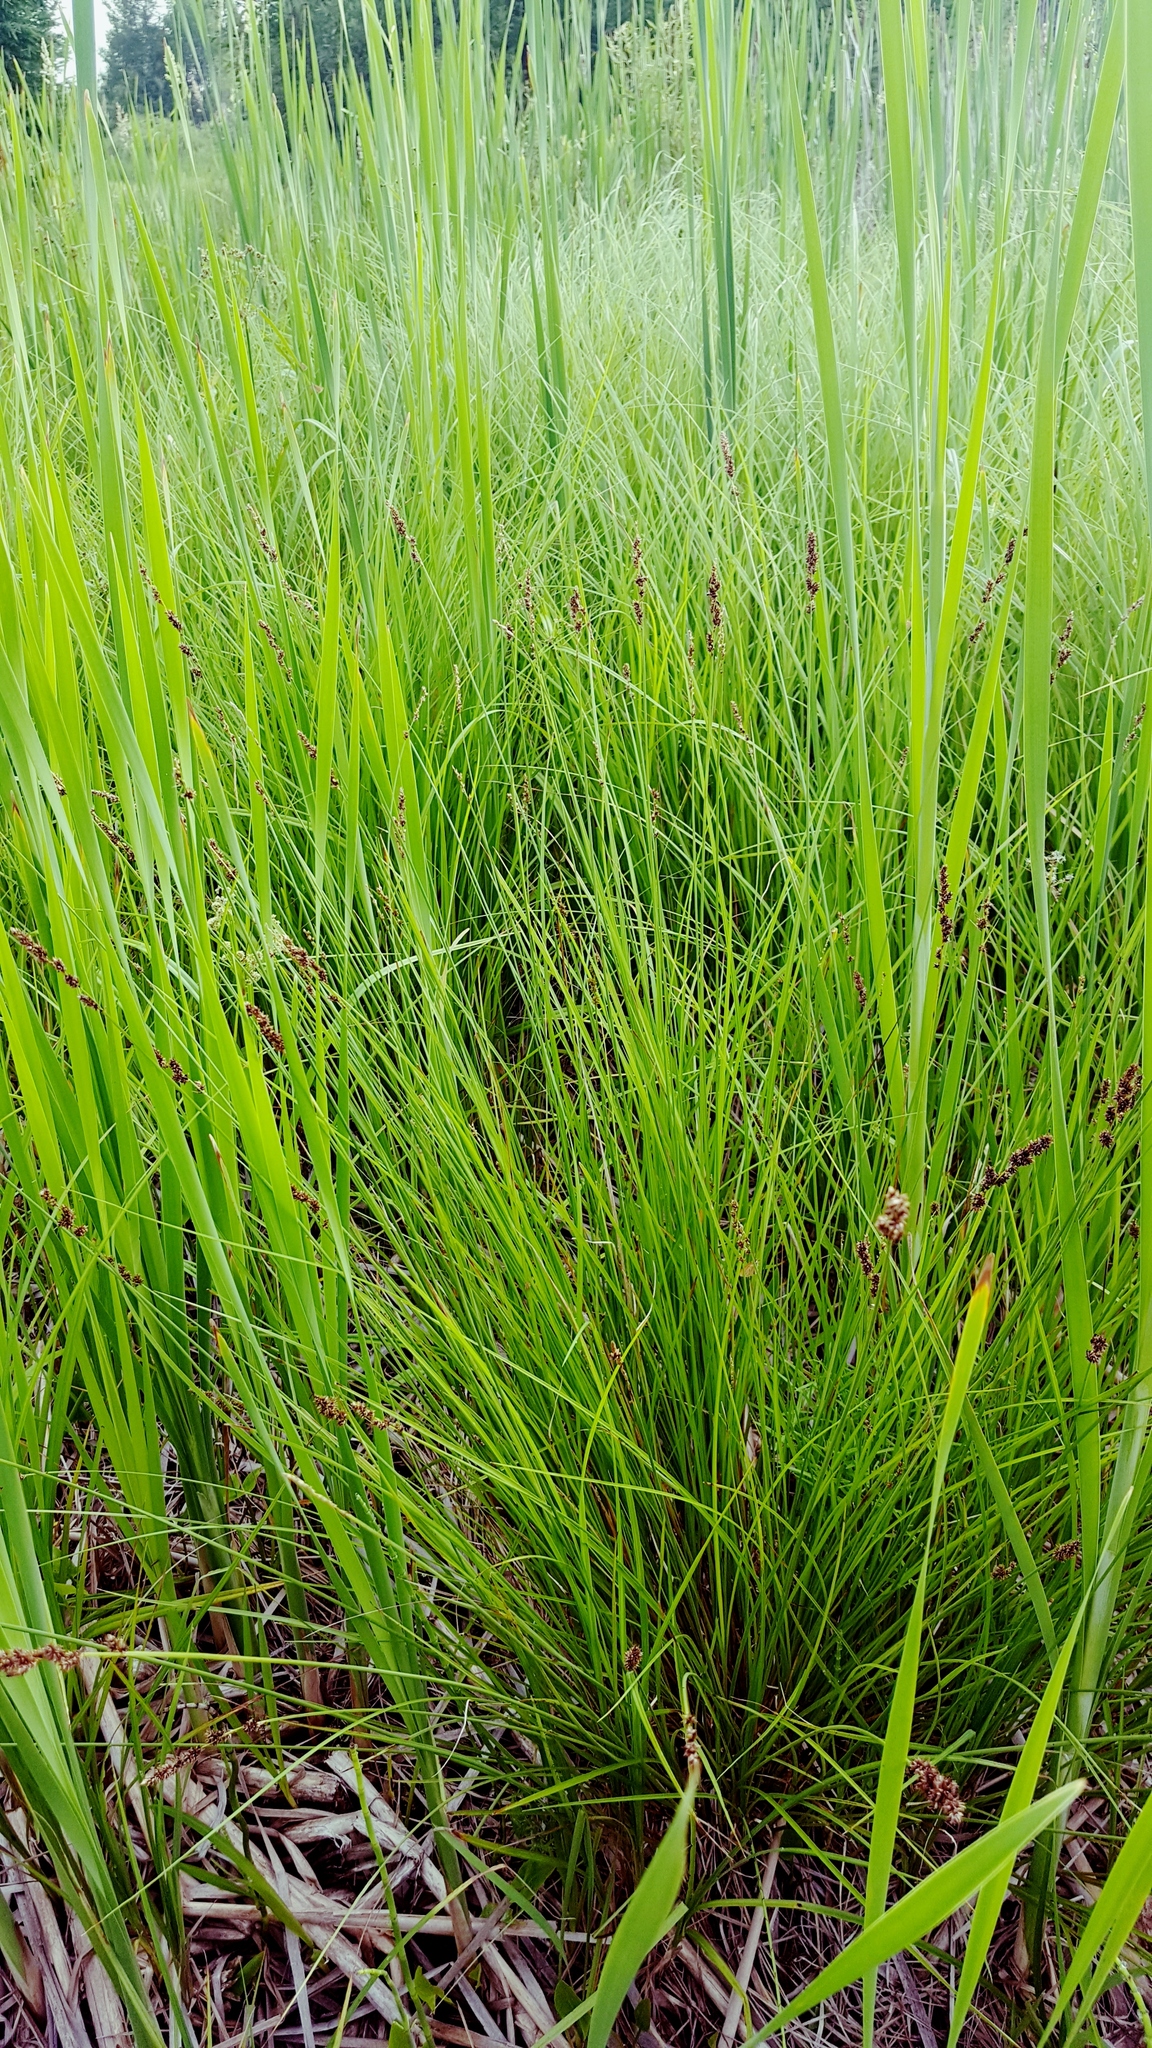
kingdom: Plantae
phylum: Tracheophyta
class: Liliopsida
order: Poales
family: Cyperaceae
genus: Carex
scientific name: Carex diandra
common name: Lesser tussock-sedge
